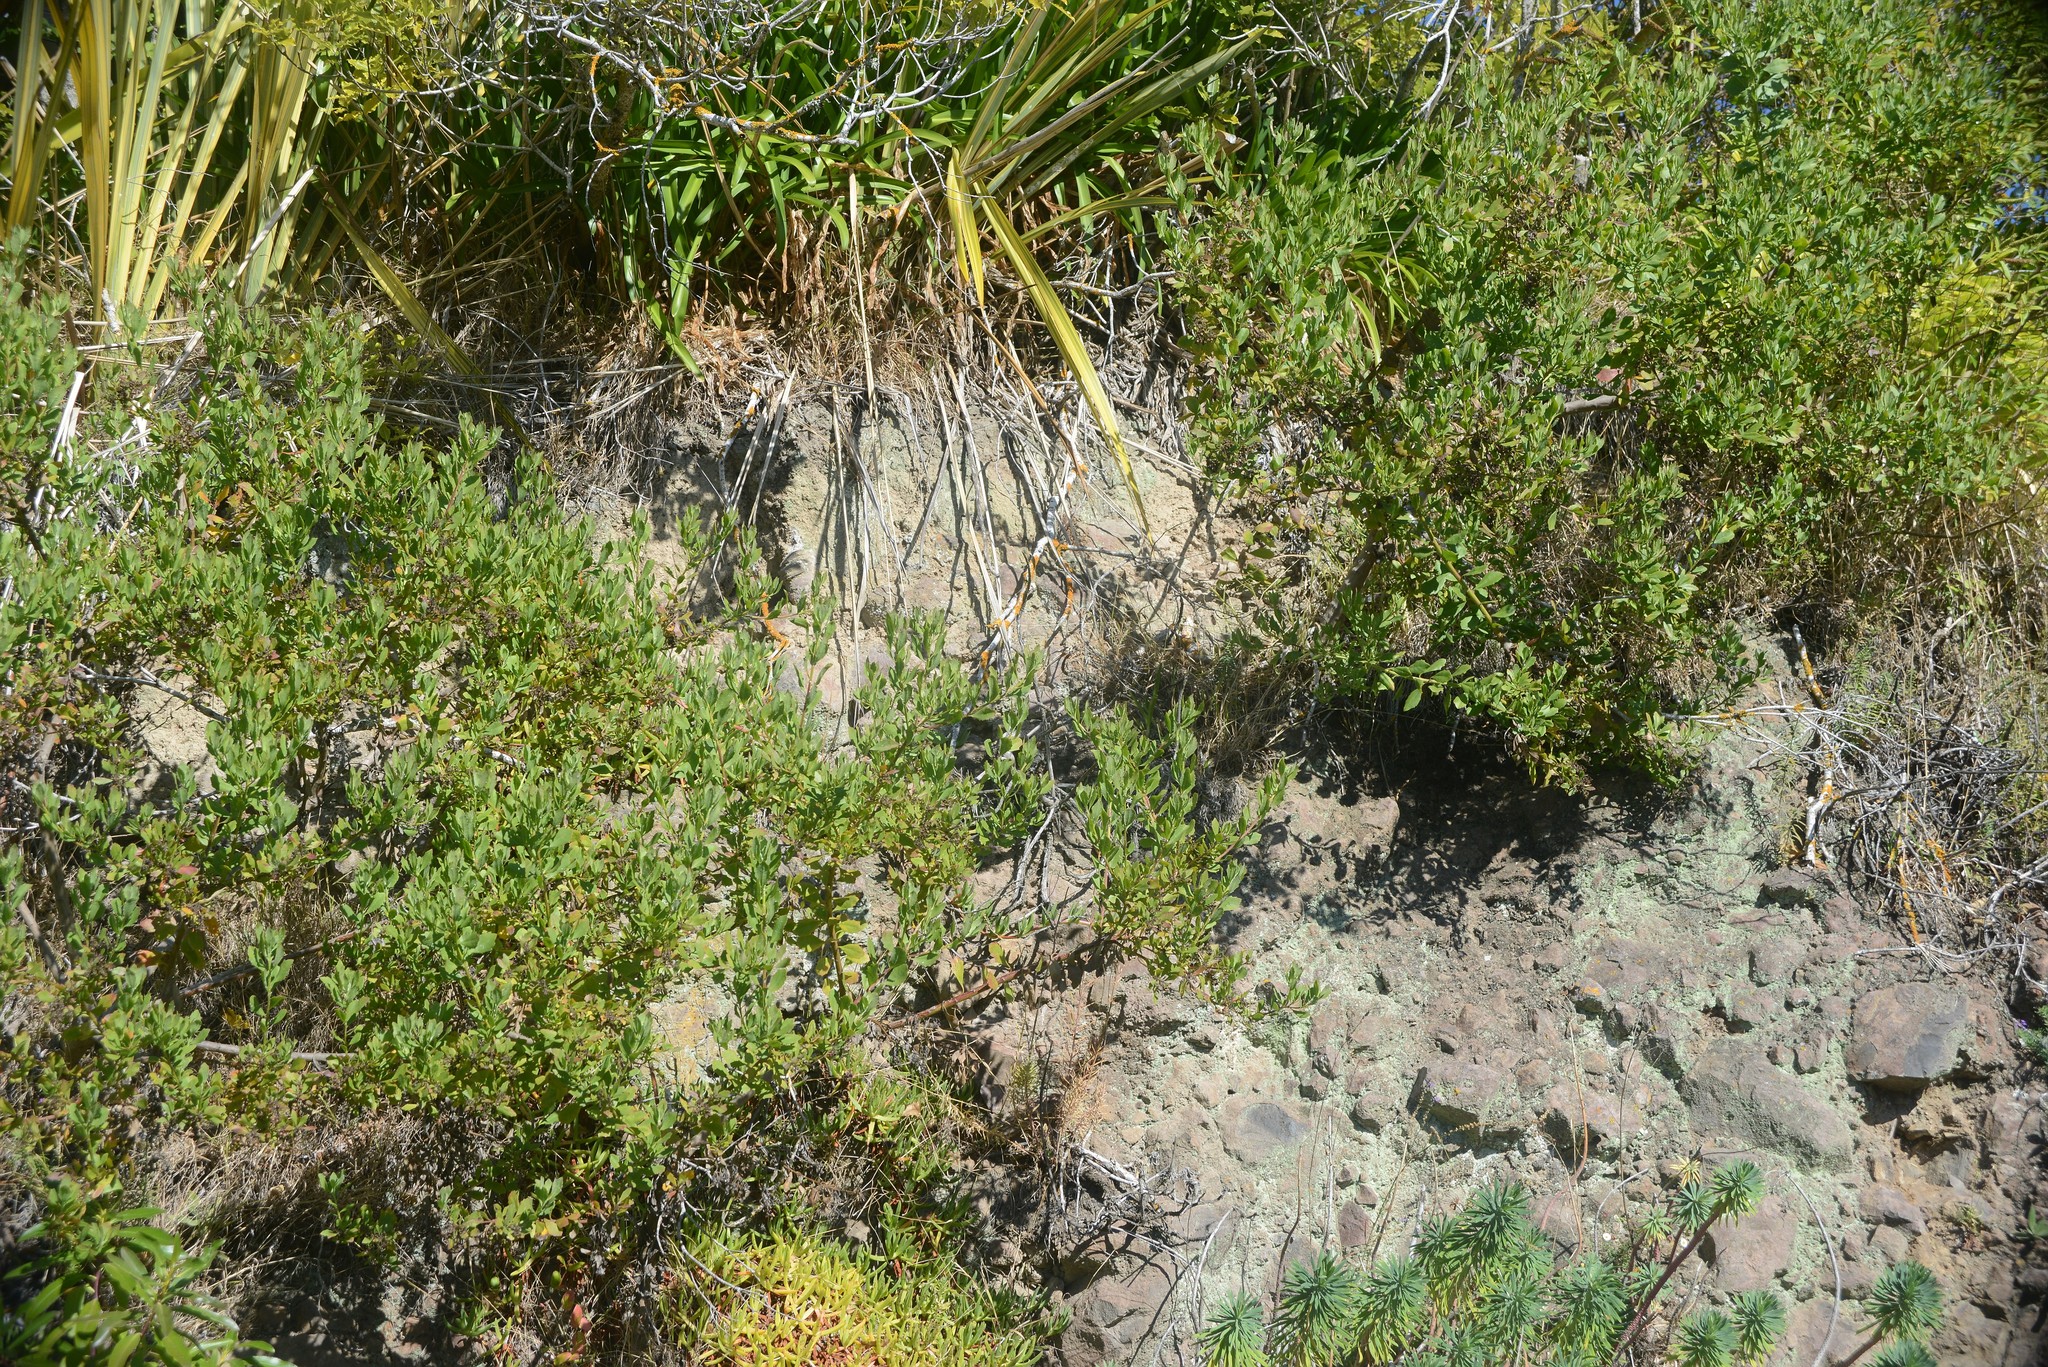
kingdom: Plantae
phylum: Tracheophyta
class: Magnoliopsida
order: Asterales
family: Asteraceae
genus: Osteospermum
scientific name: Osteospermum moniliferum
